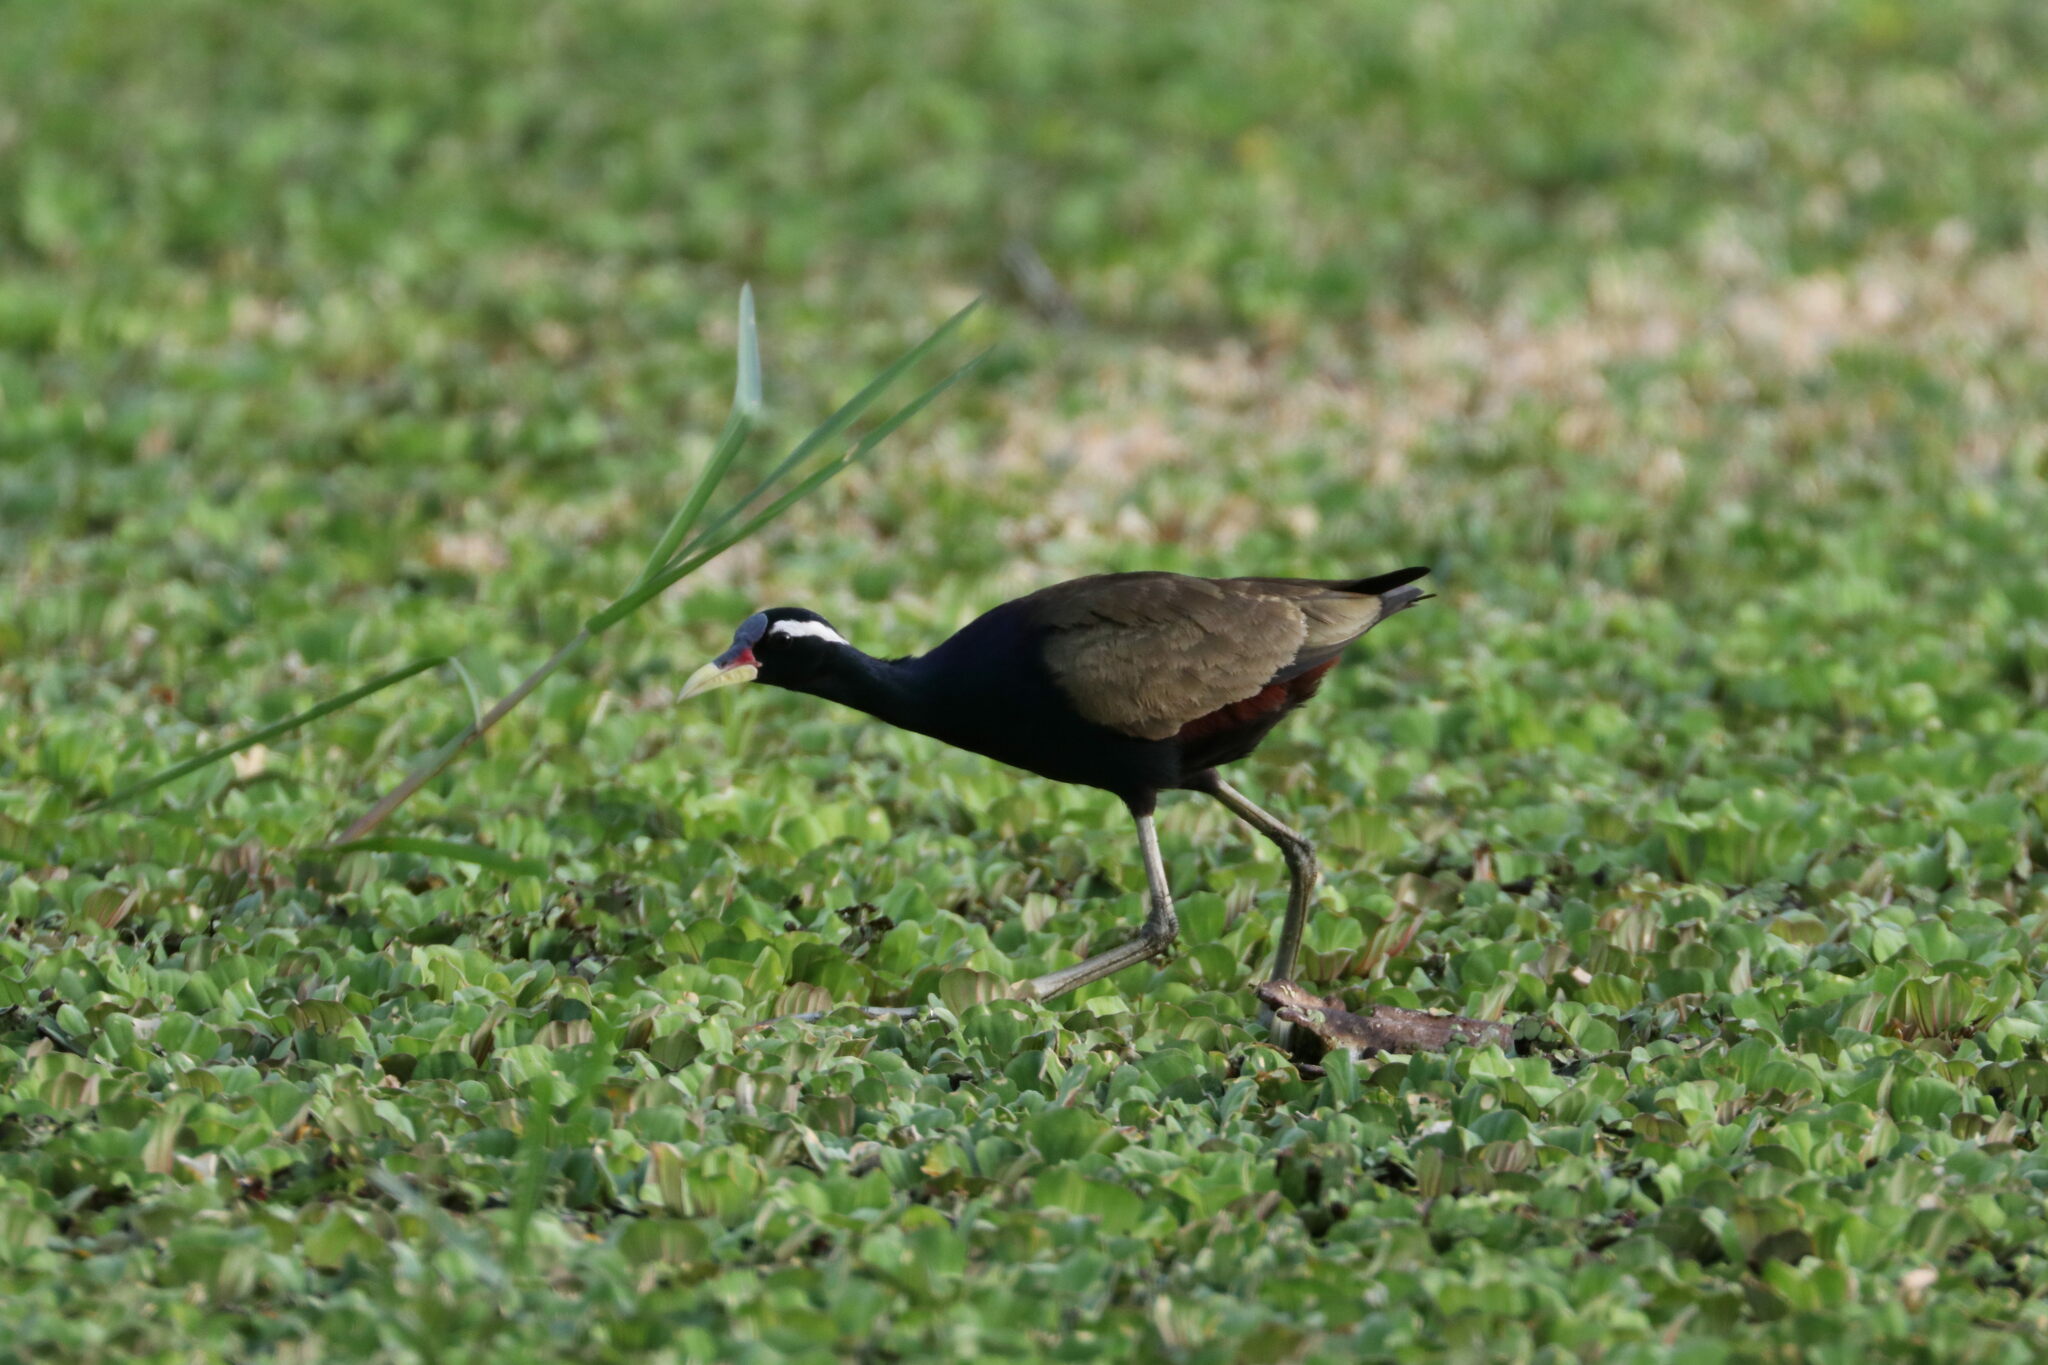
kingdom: Animalia
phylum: Chordata
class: Aves
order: Charadriiformes
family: Jacanidae
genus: Metopidius
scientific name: Metopidius indicus
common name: Bronze-winged jacana
